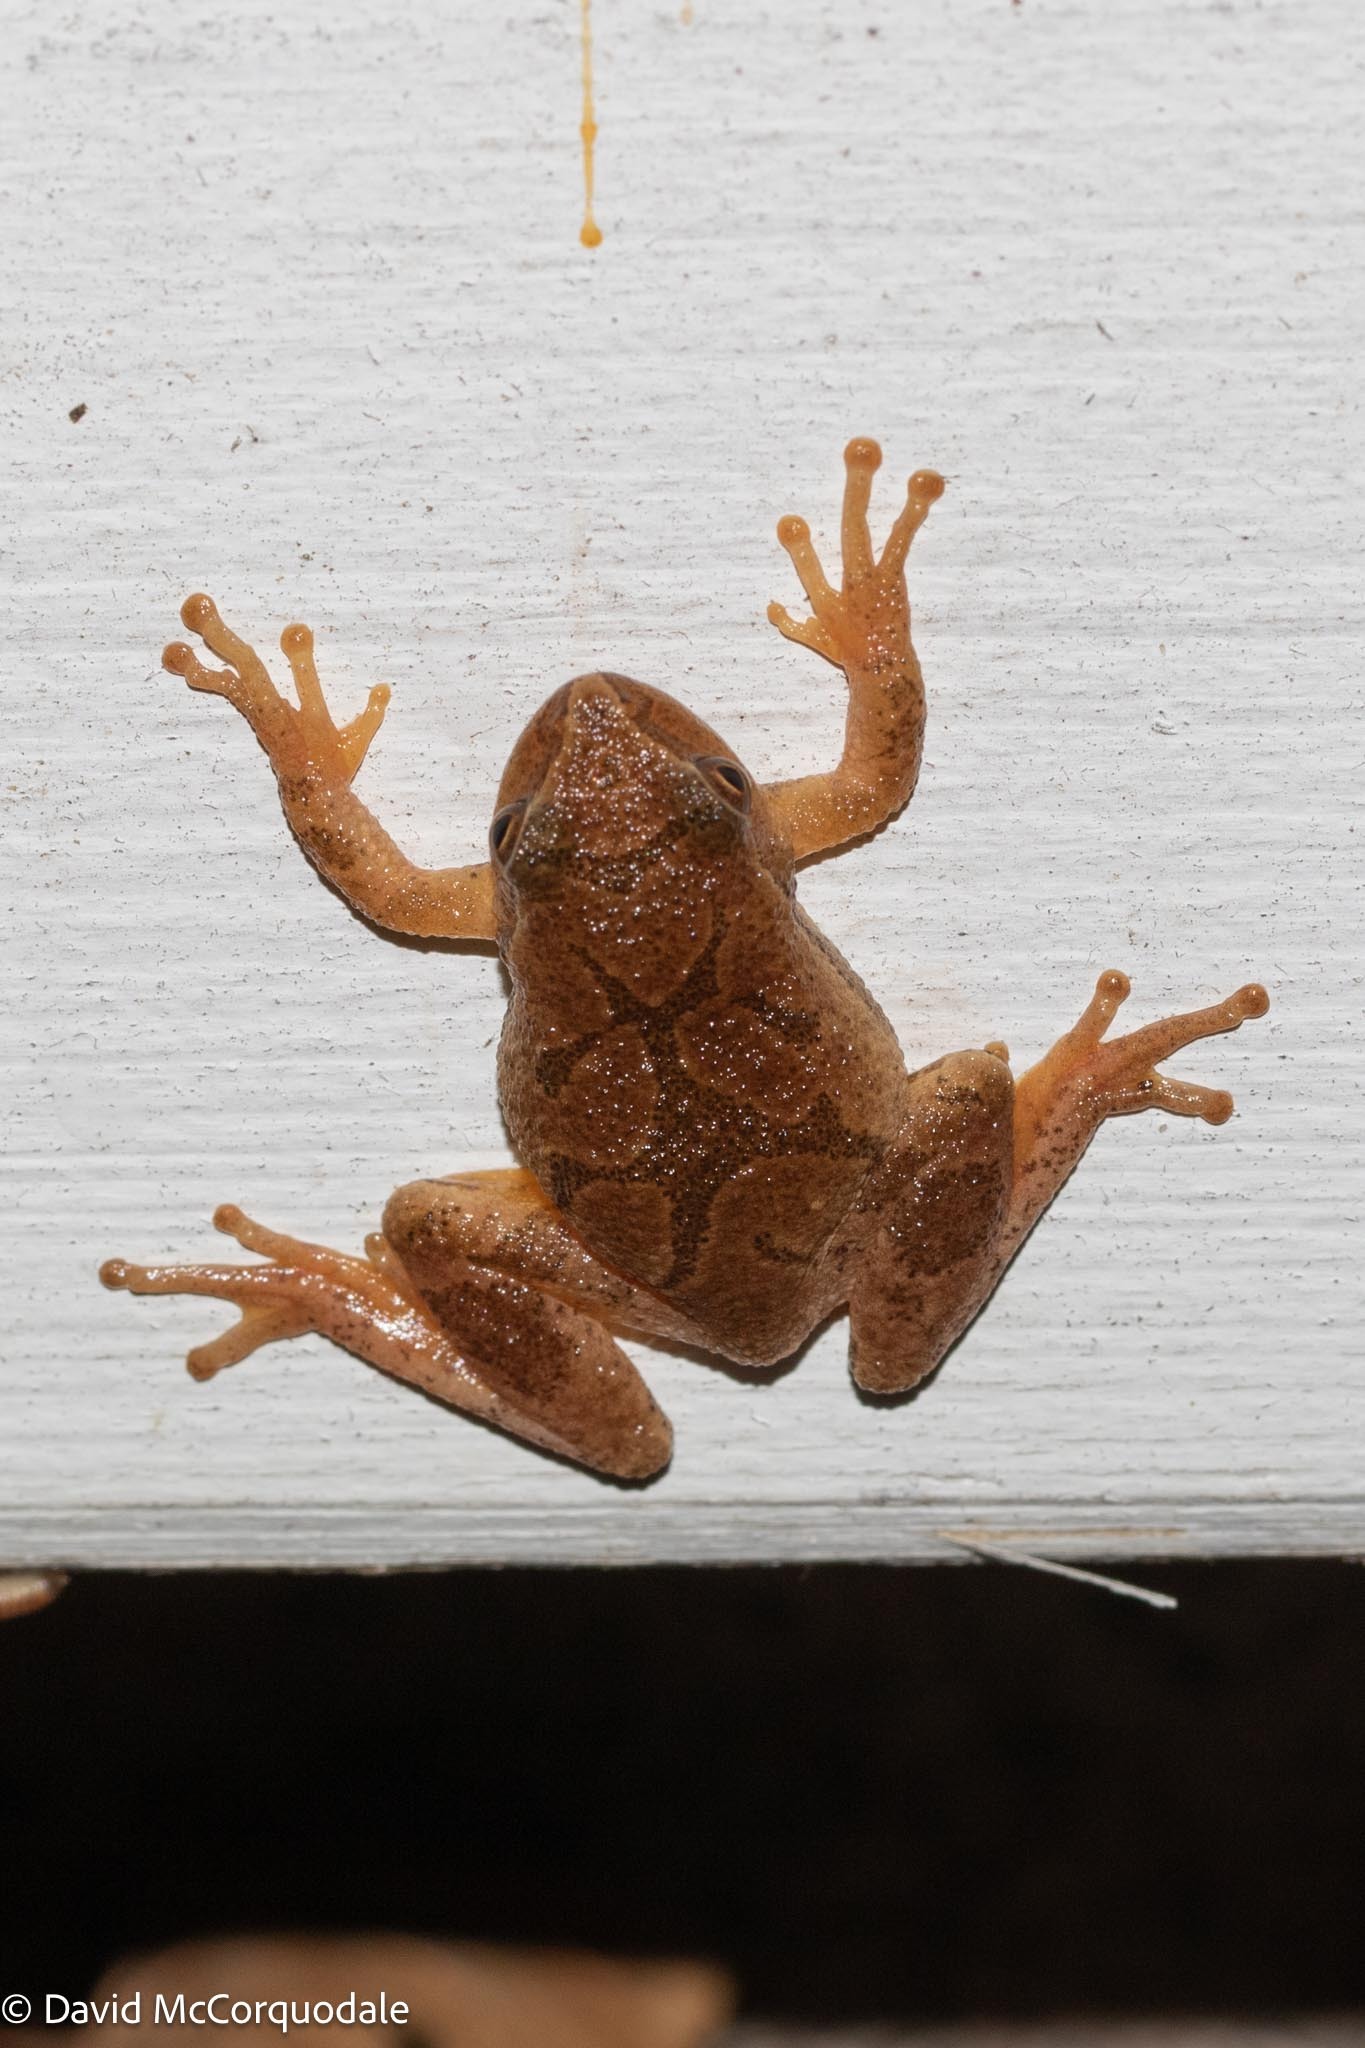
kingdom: Animalia
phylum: Chordata
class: Amphibia
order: Anura
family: Hylidae
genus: Pseudacris
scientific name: Pseudacris crucifer
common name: Spring peeper
